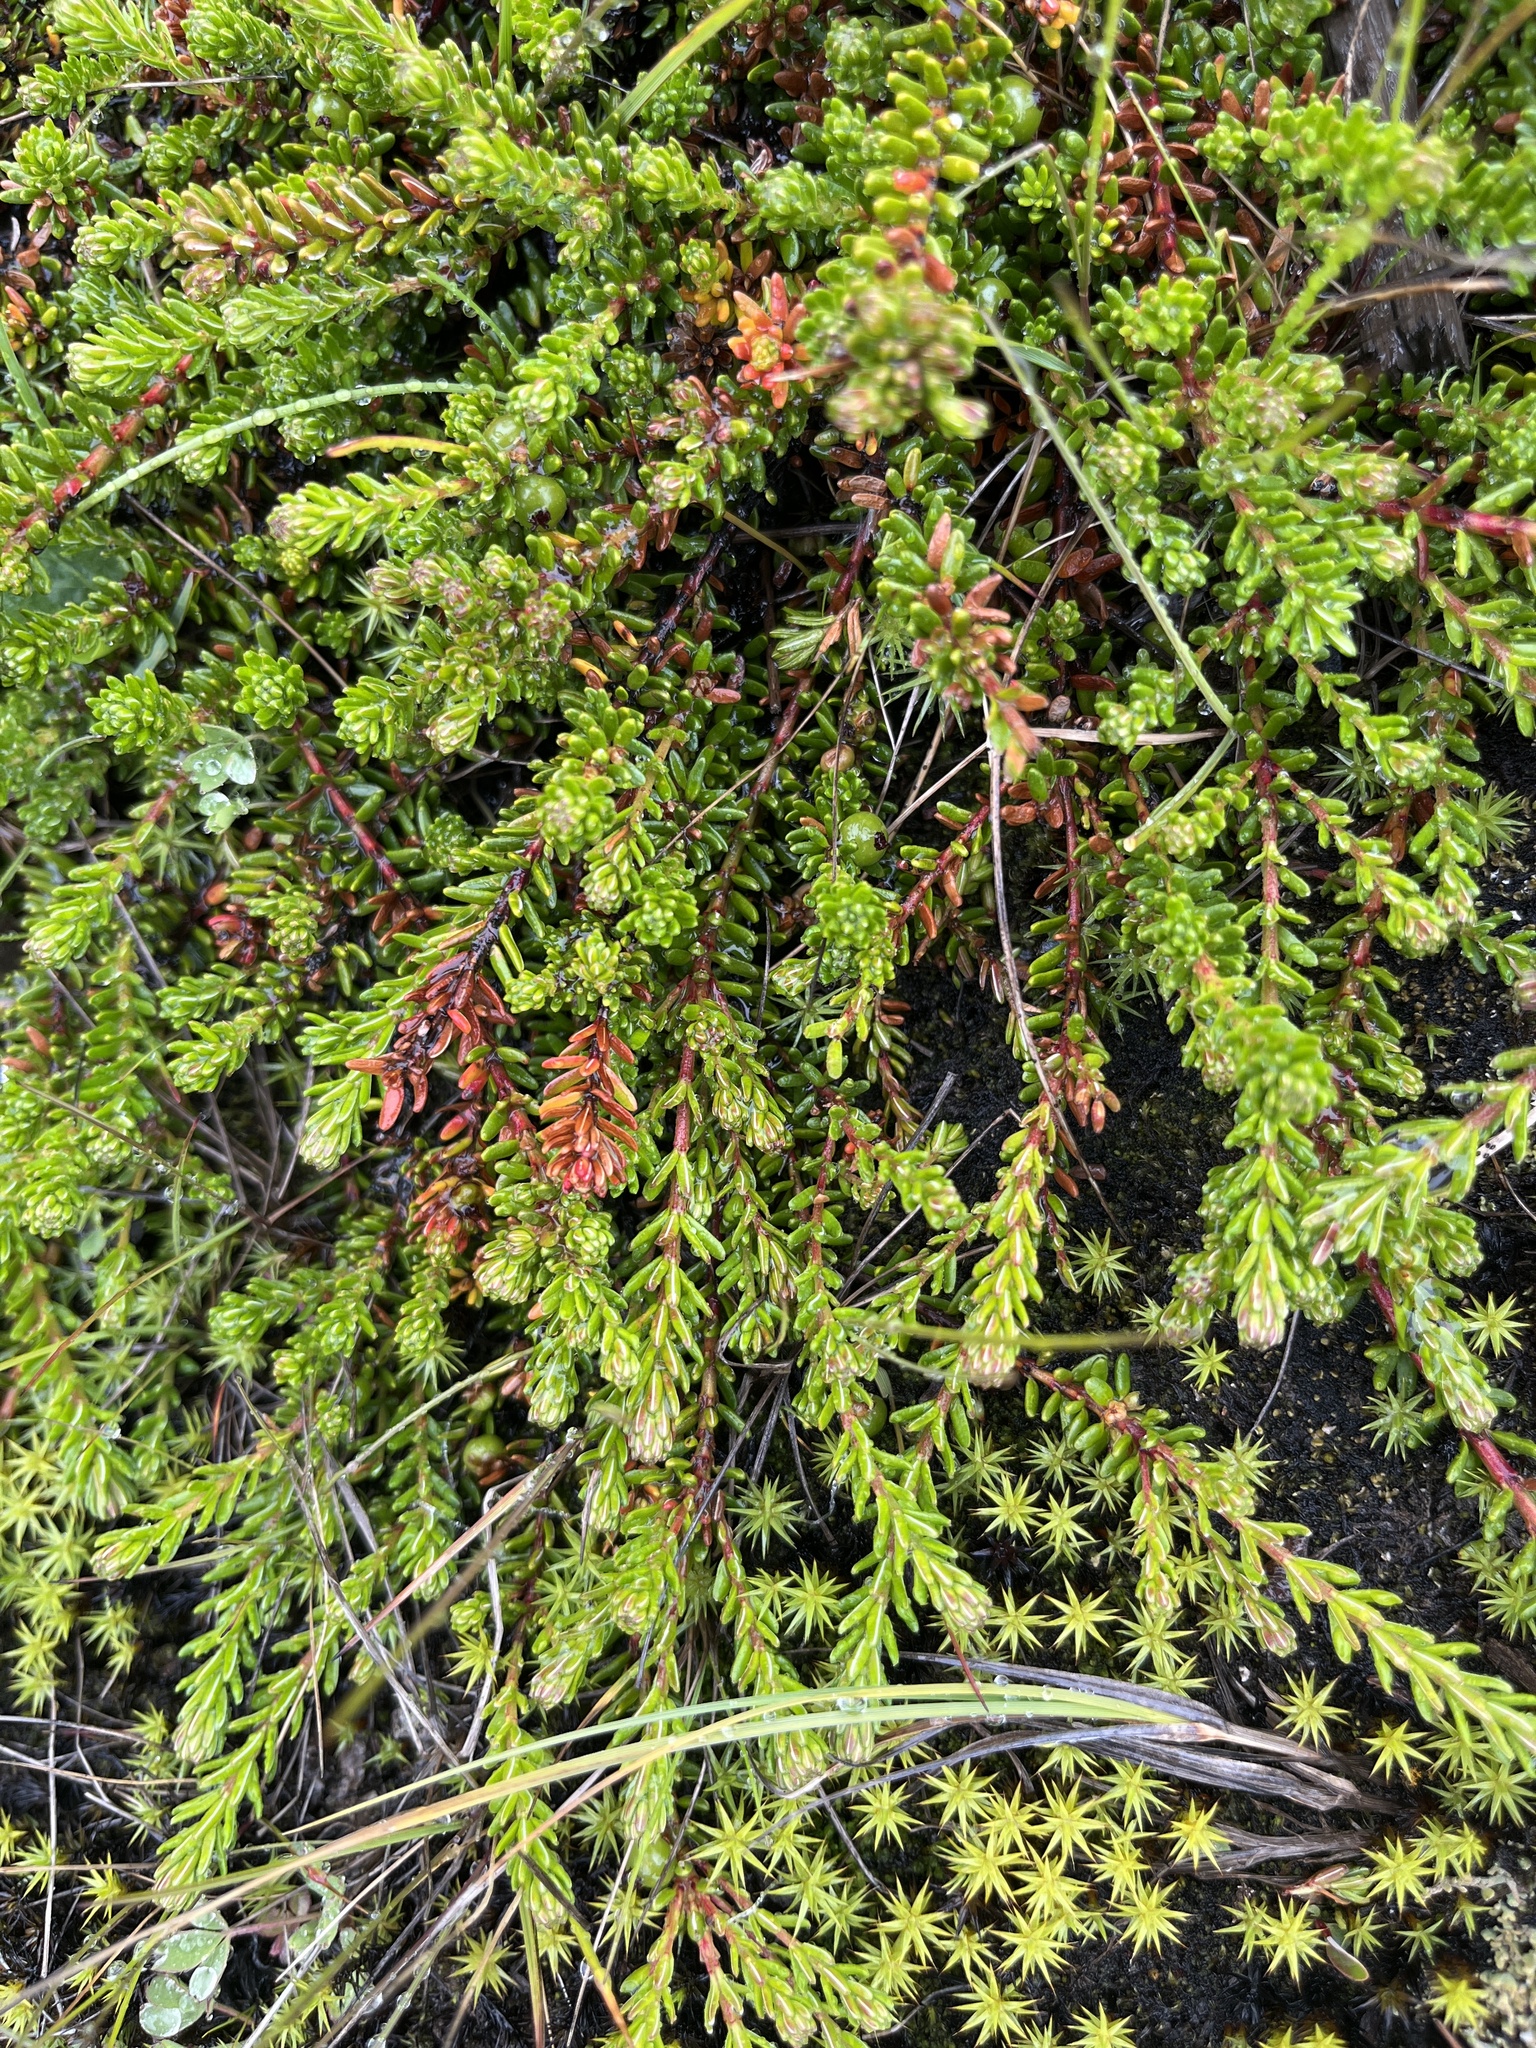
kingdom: Plantae
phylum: Tracheophyta
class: Magnoliopsida
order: Ericales
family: Ericaceae
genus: Empetrum
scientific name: Empetrum hermaphroditum
